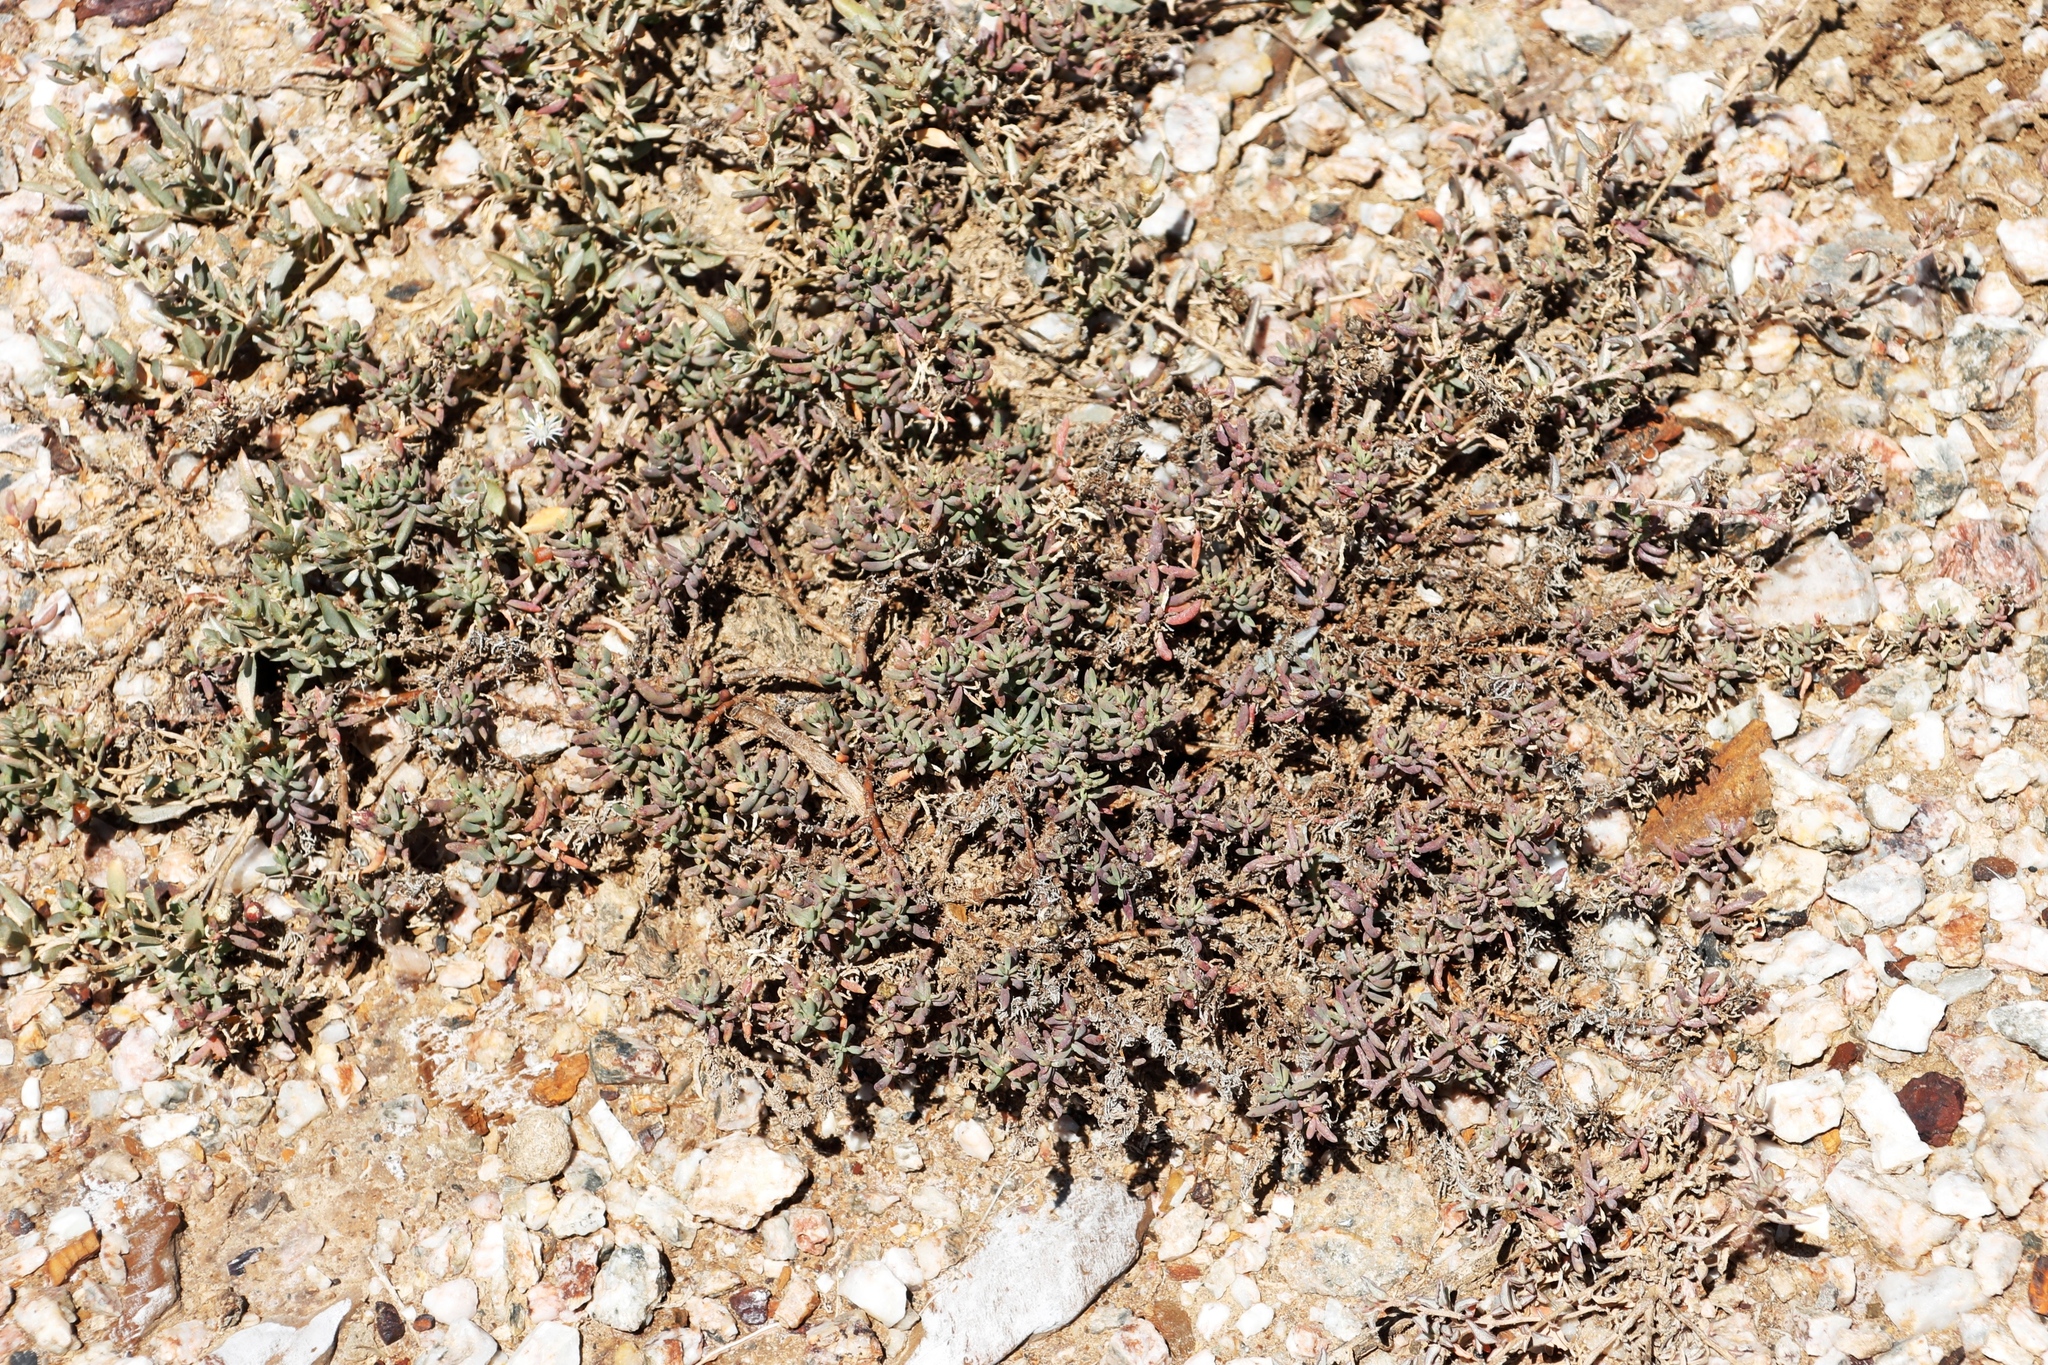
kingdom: Plantae
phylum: Tracheophyta
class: Magnoliopsida
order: Caryophyllales
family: Amaranthaceae
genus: Atriplex
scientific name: Atriplex semibaccata
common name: Australian saltbush
